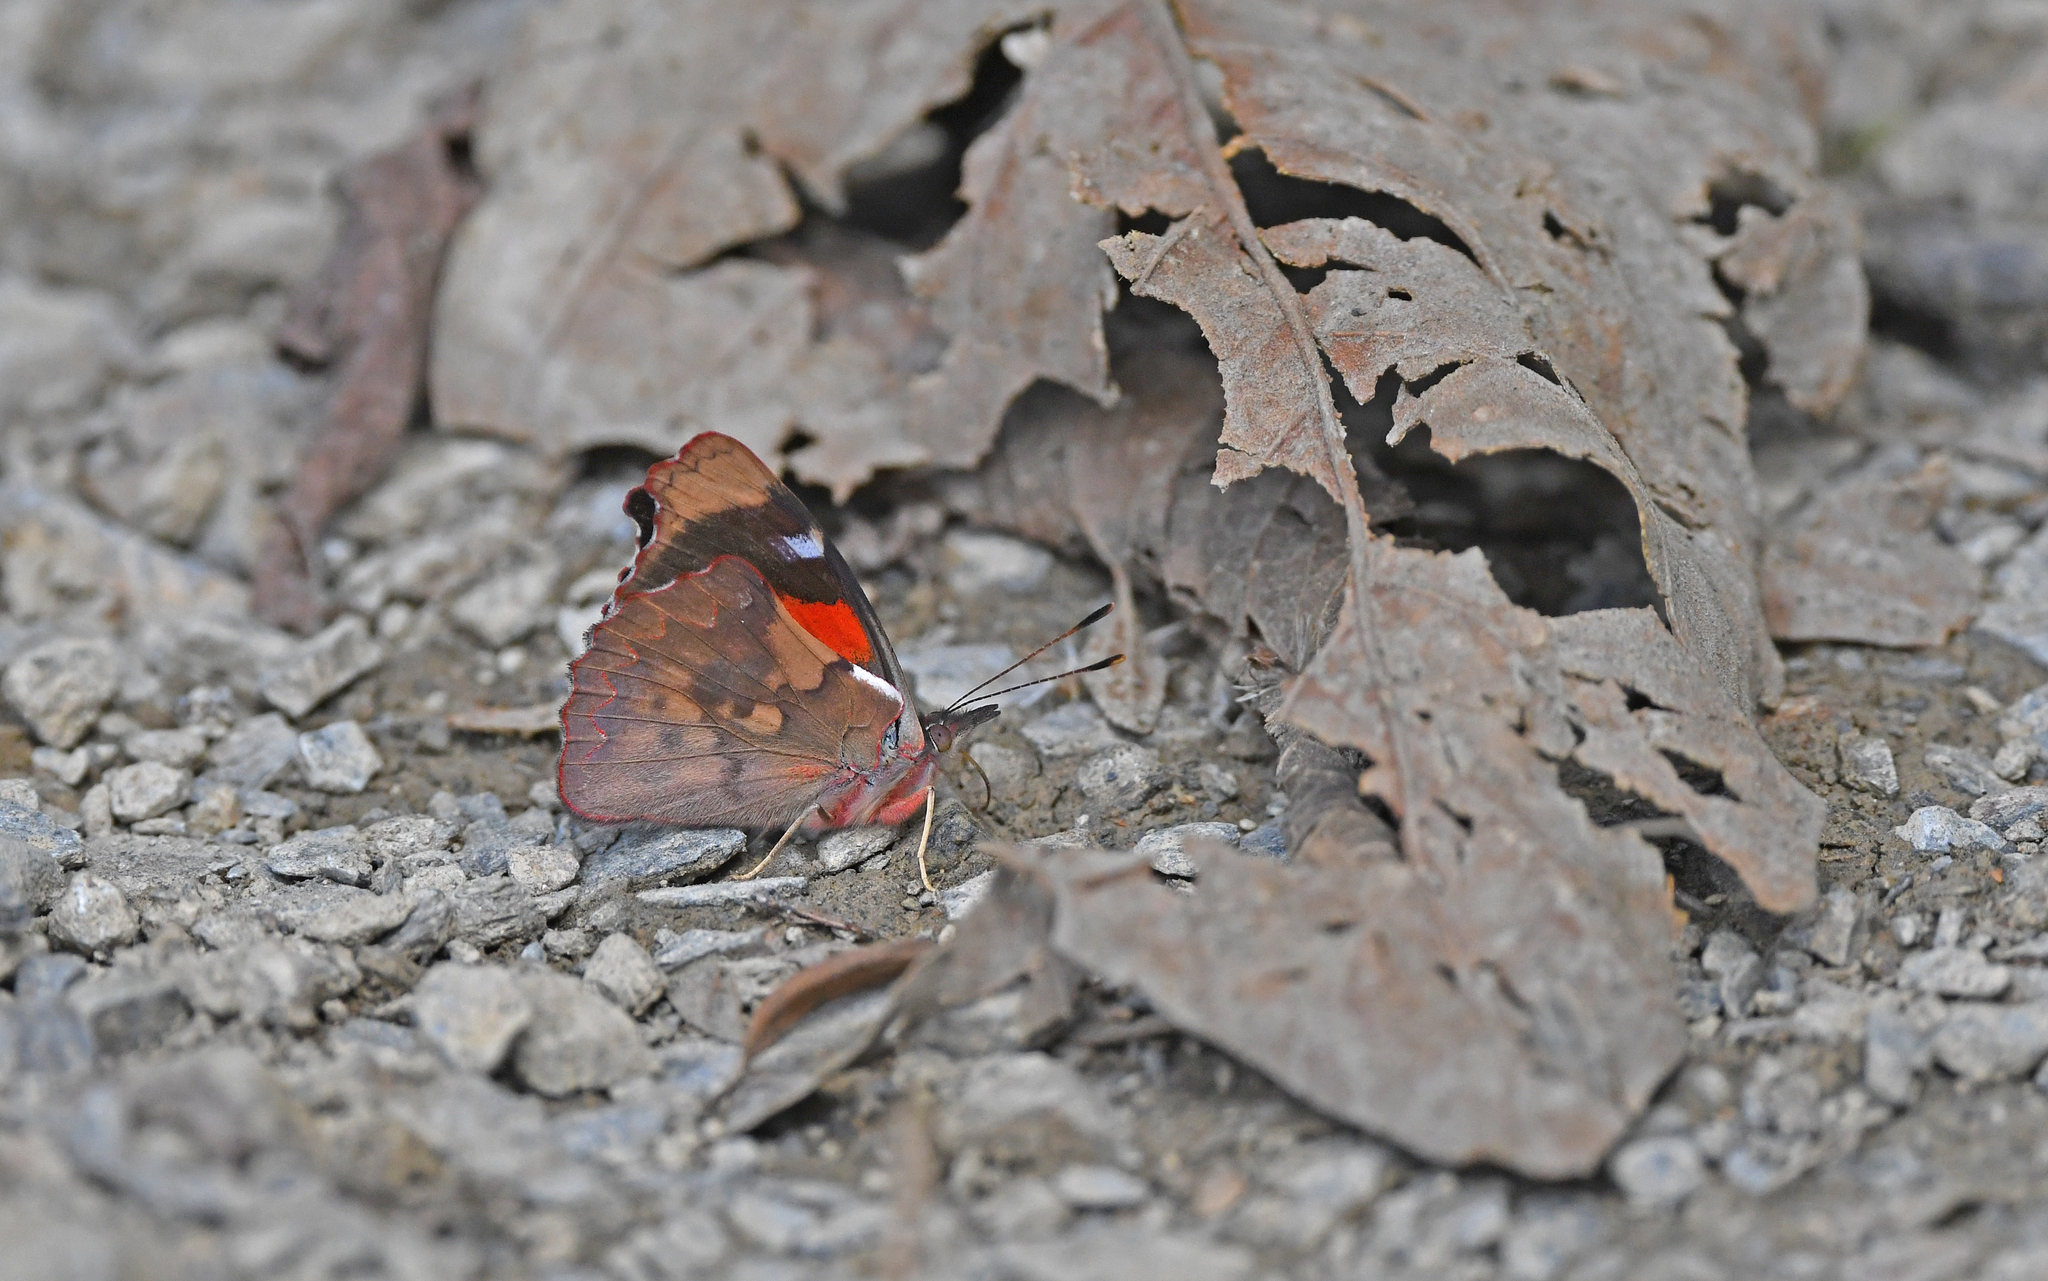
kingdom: Animalia
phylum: Arthropoda
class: Insecta
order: Lepidoptera
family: Nymphalidae
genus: Perisama
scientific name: Perisama diotima
